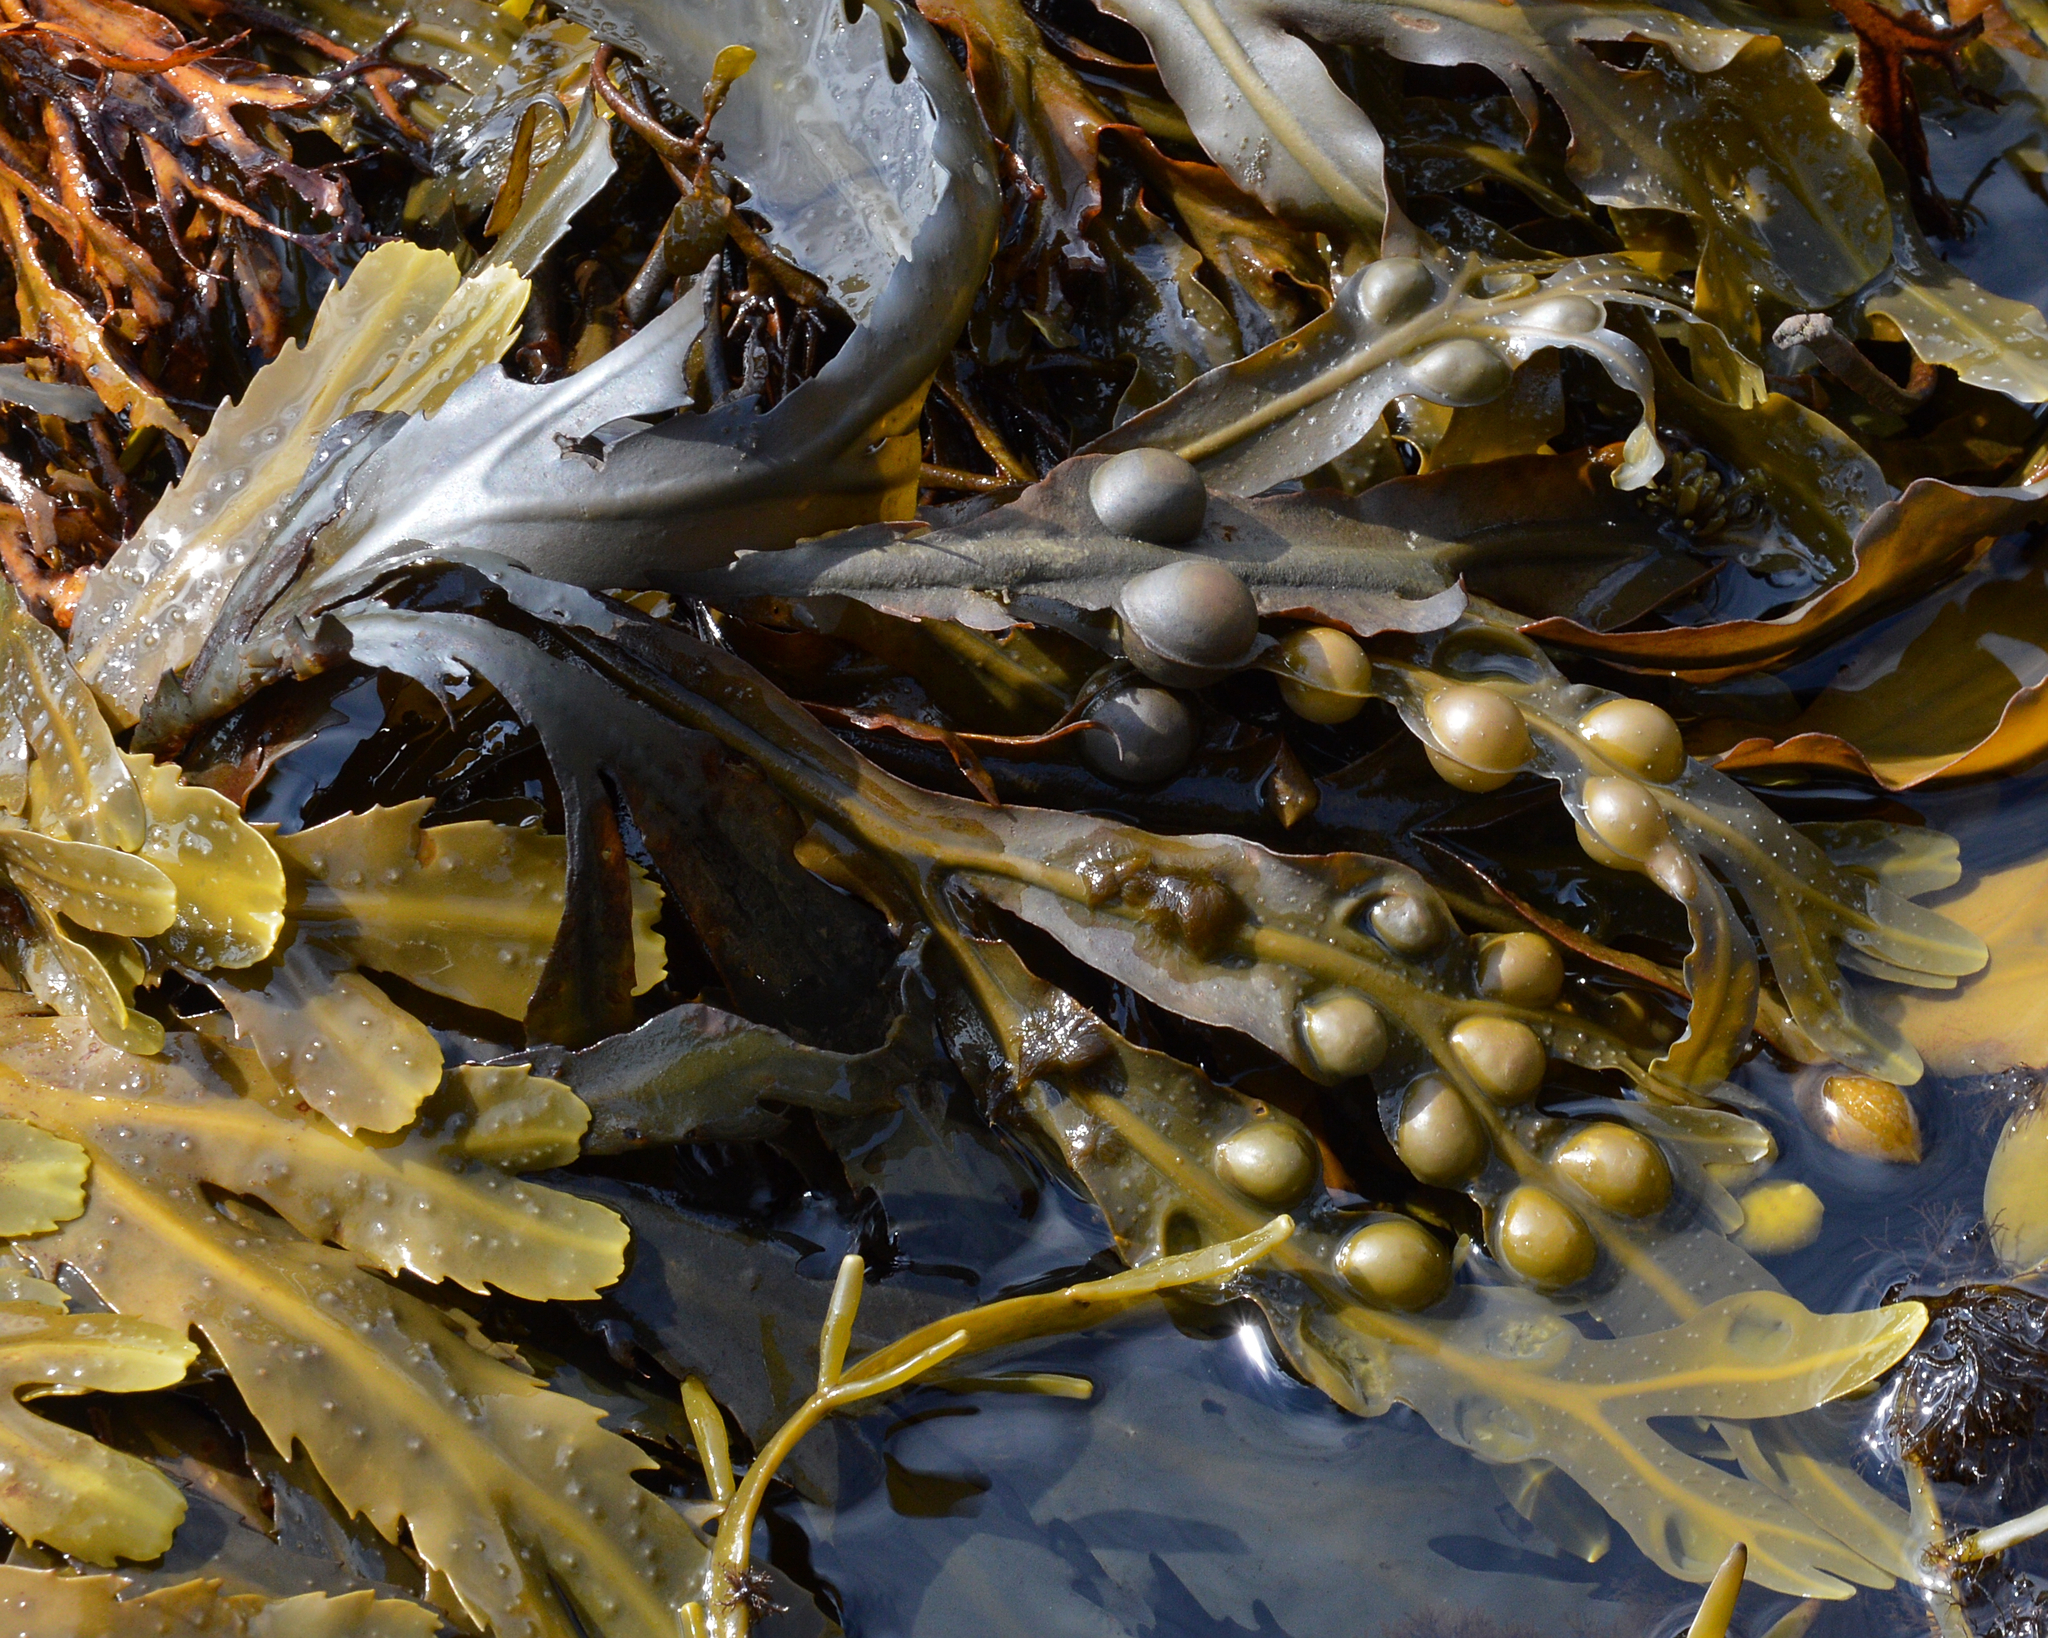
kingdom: Chromista
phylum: Ochrophyta
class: Phaeophyceae
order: Fucales
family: Fucaceae
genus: Fucus
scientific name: Fucus vesiculosus
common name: Bladder wrack
